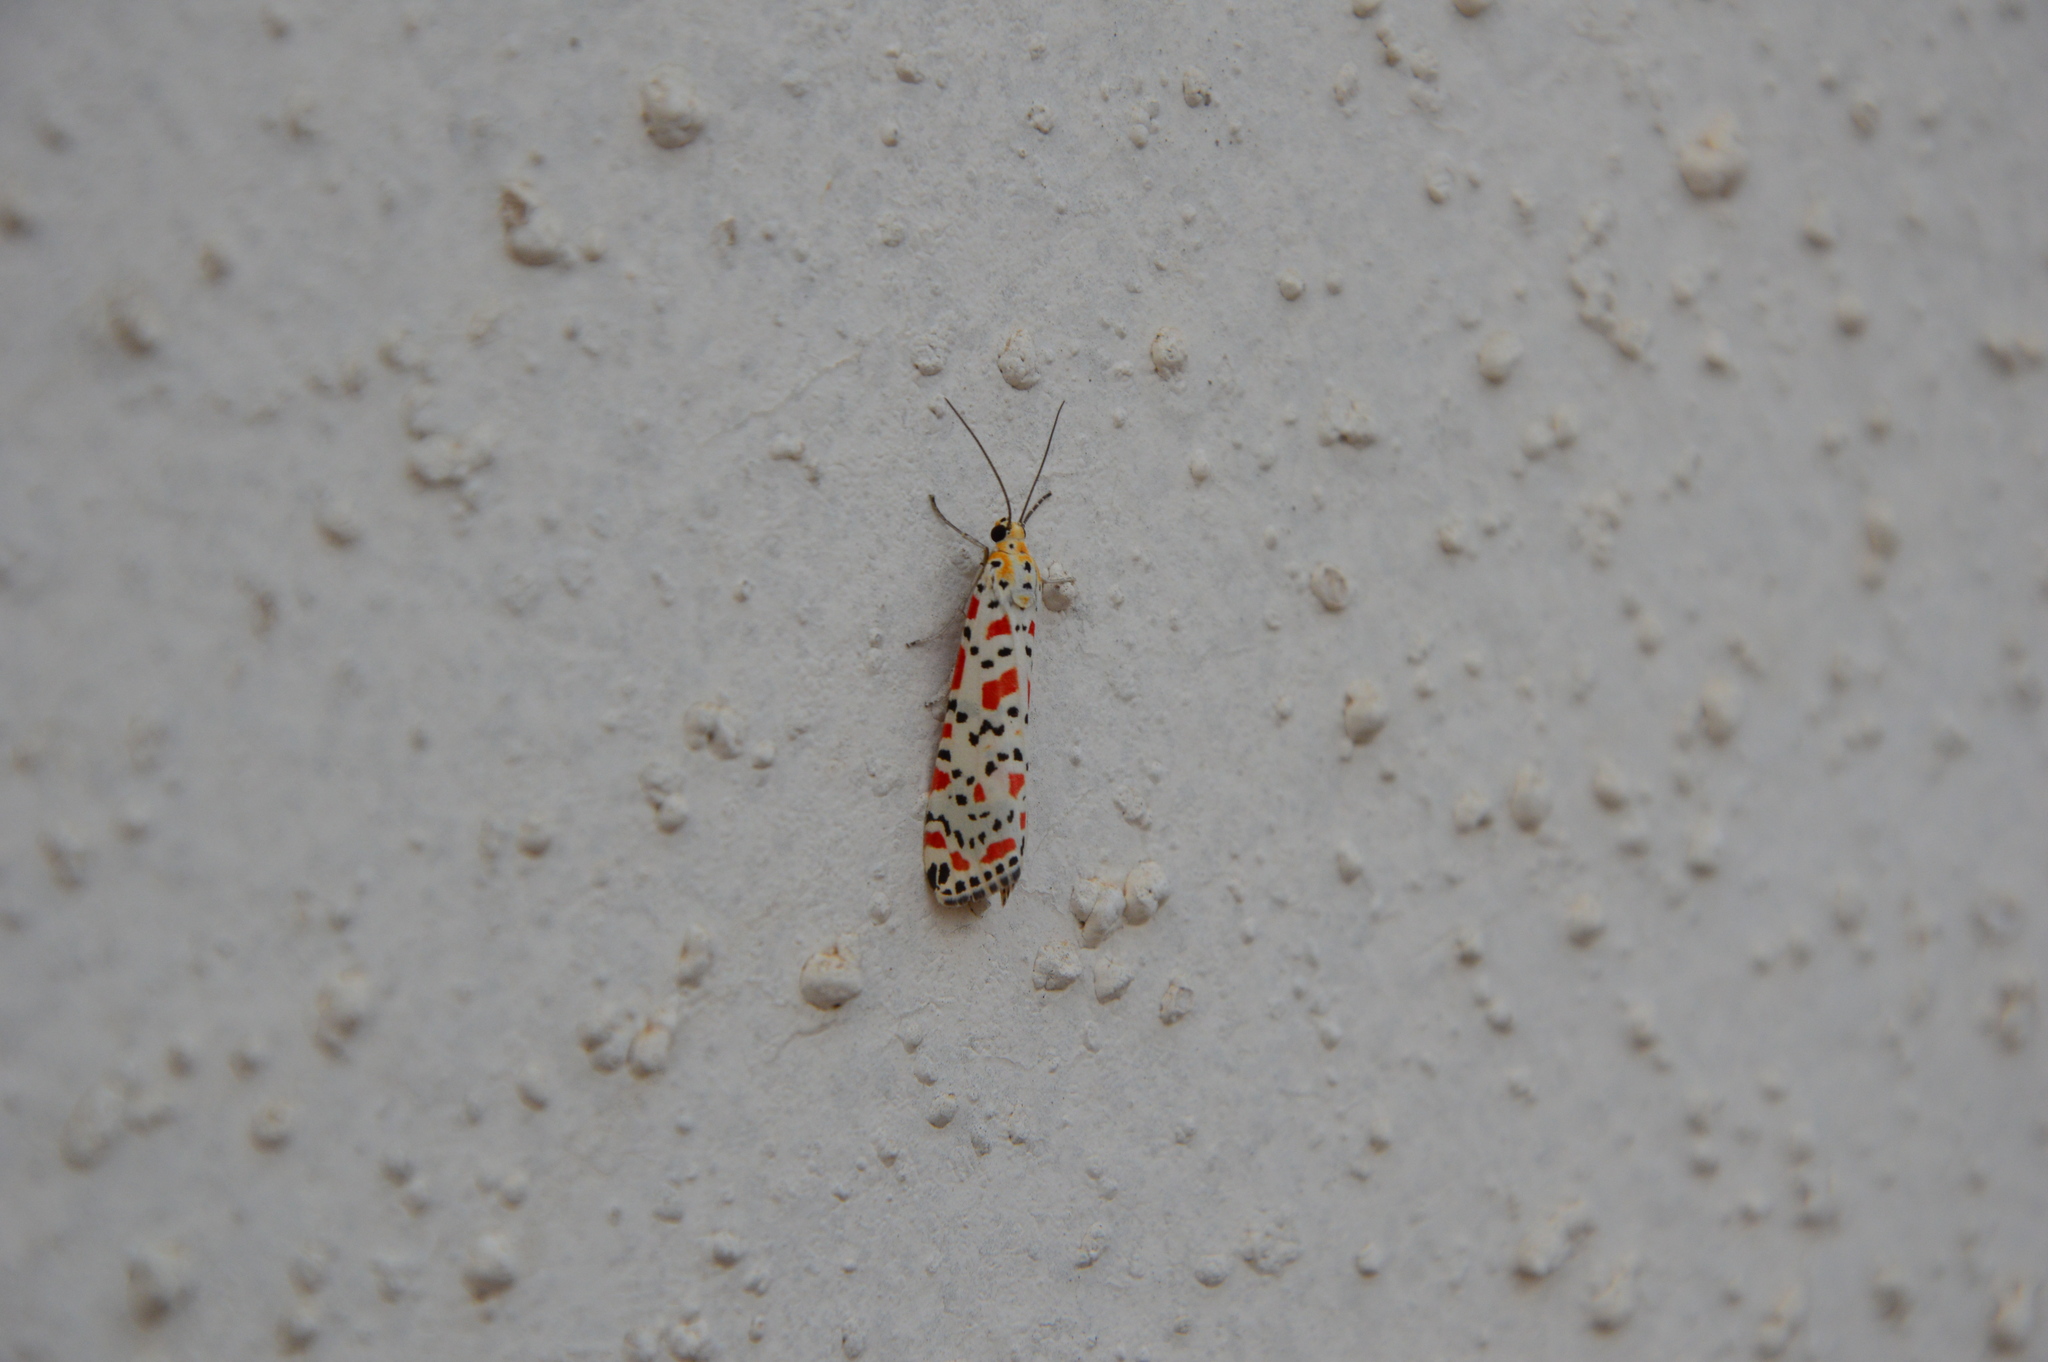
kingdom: Animalia
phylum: Arthropoda
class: Insecta
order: Lepidoptera
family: Erebidae
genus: Utetheisa
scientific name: Utetheisa pulchella
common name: Crimson speckled
